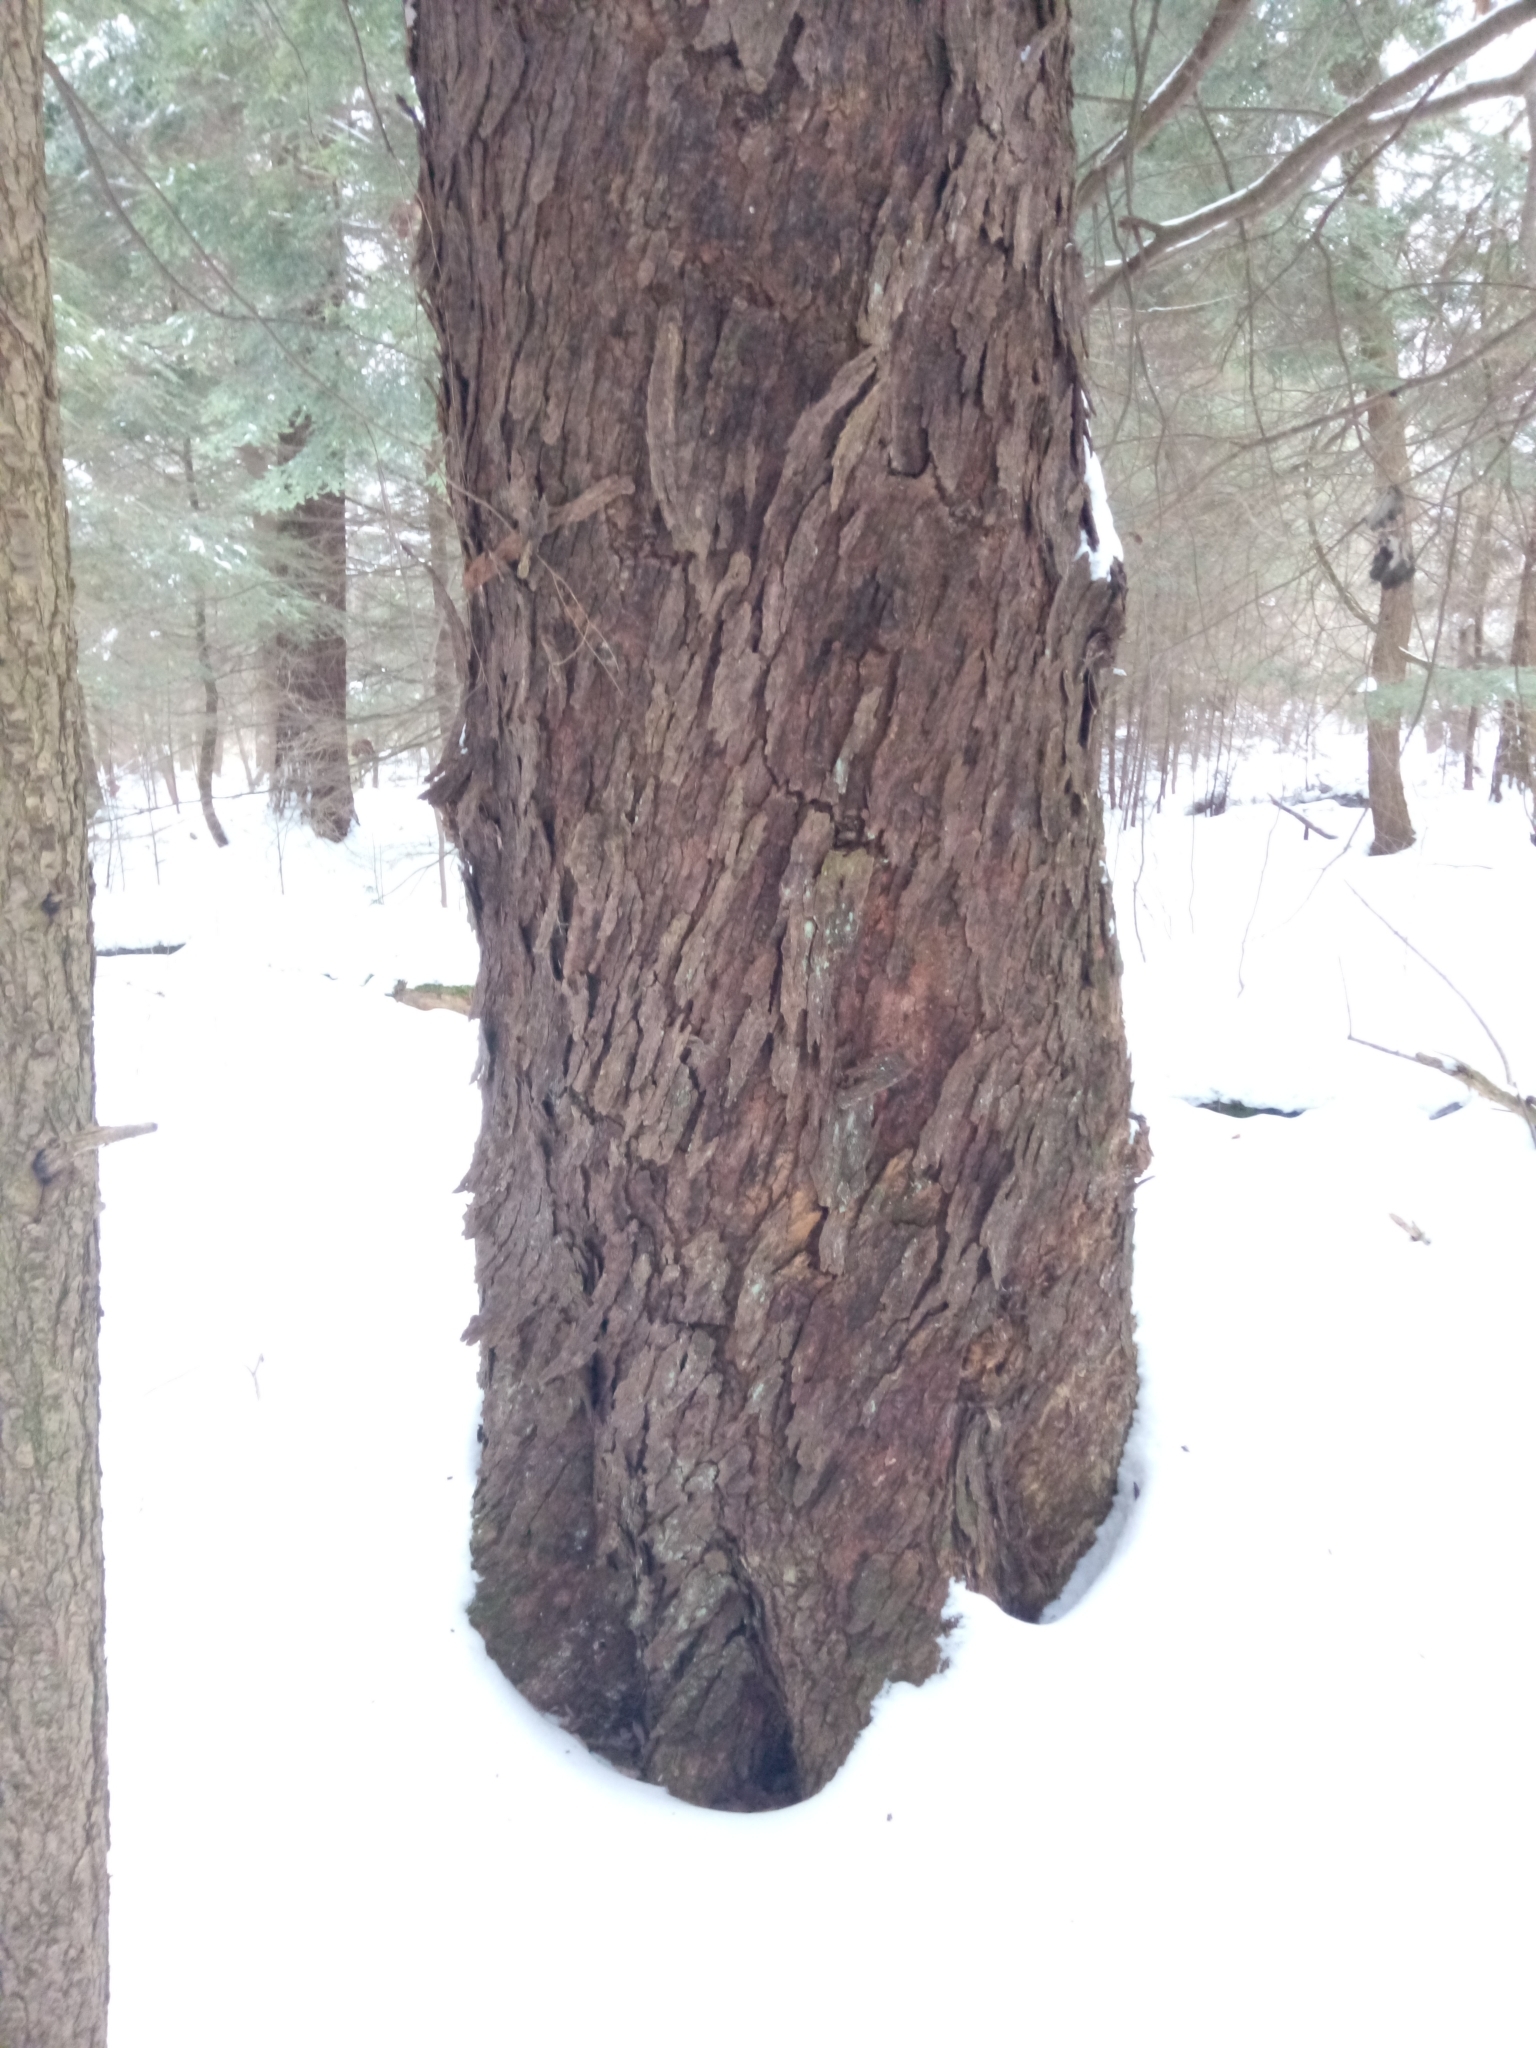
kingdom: Plantae
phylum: Tracheophyta
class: Magnoliopsida
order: Sapindales
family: Sapindaceae
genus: Acer
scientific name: Acer rubrum
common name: Red maple
